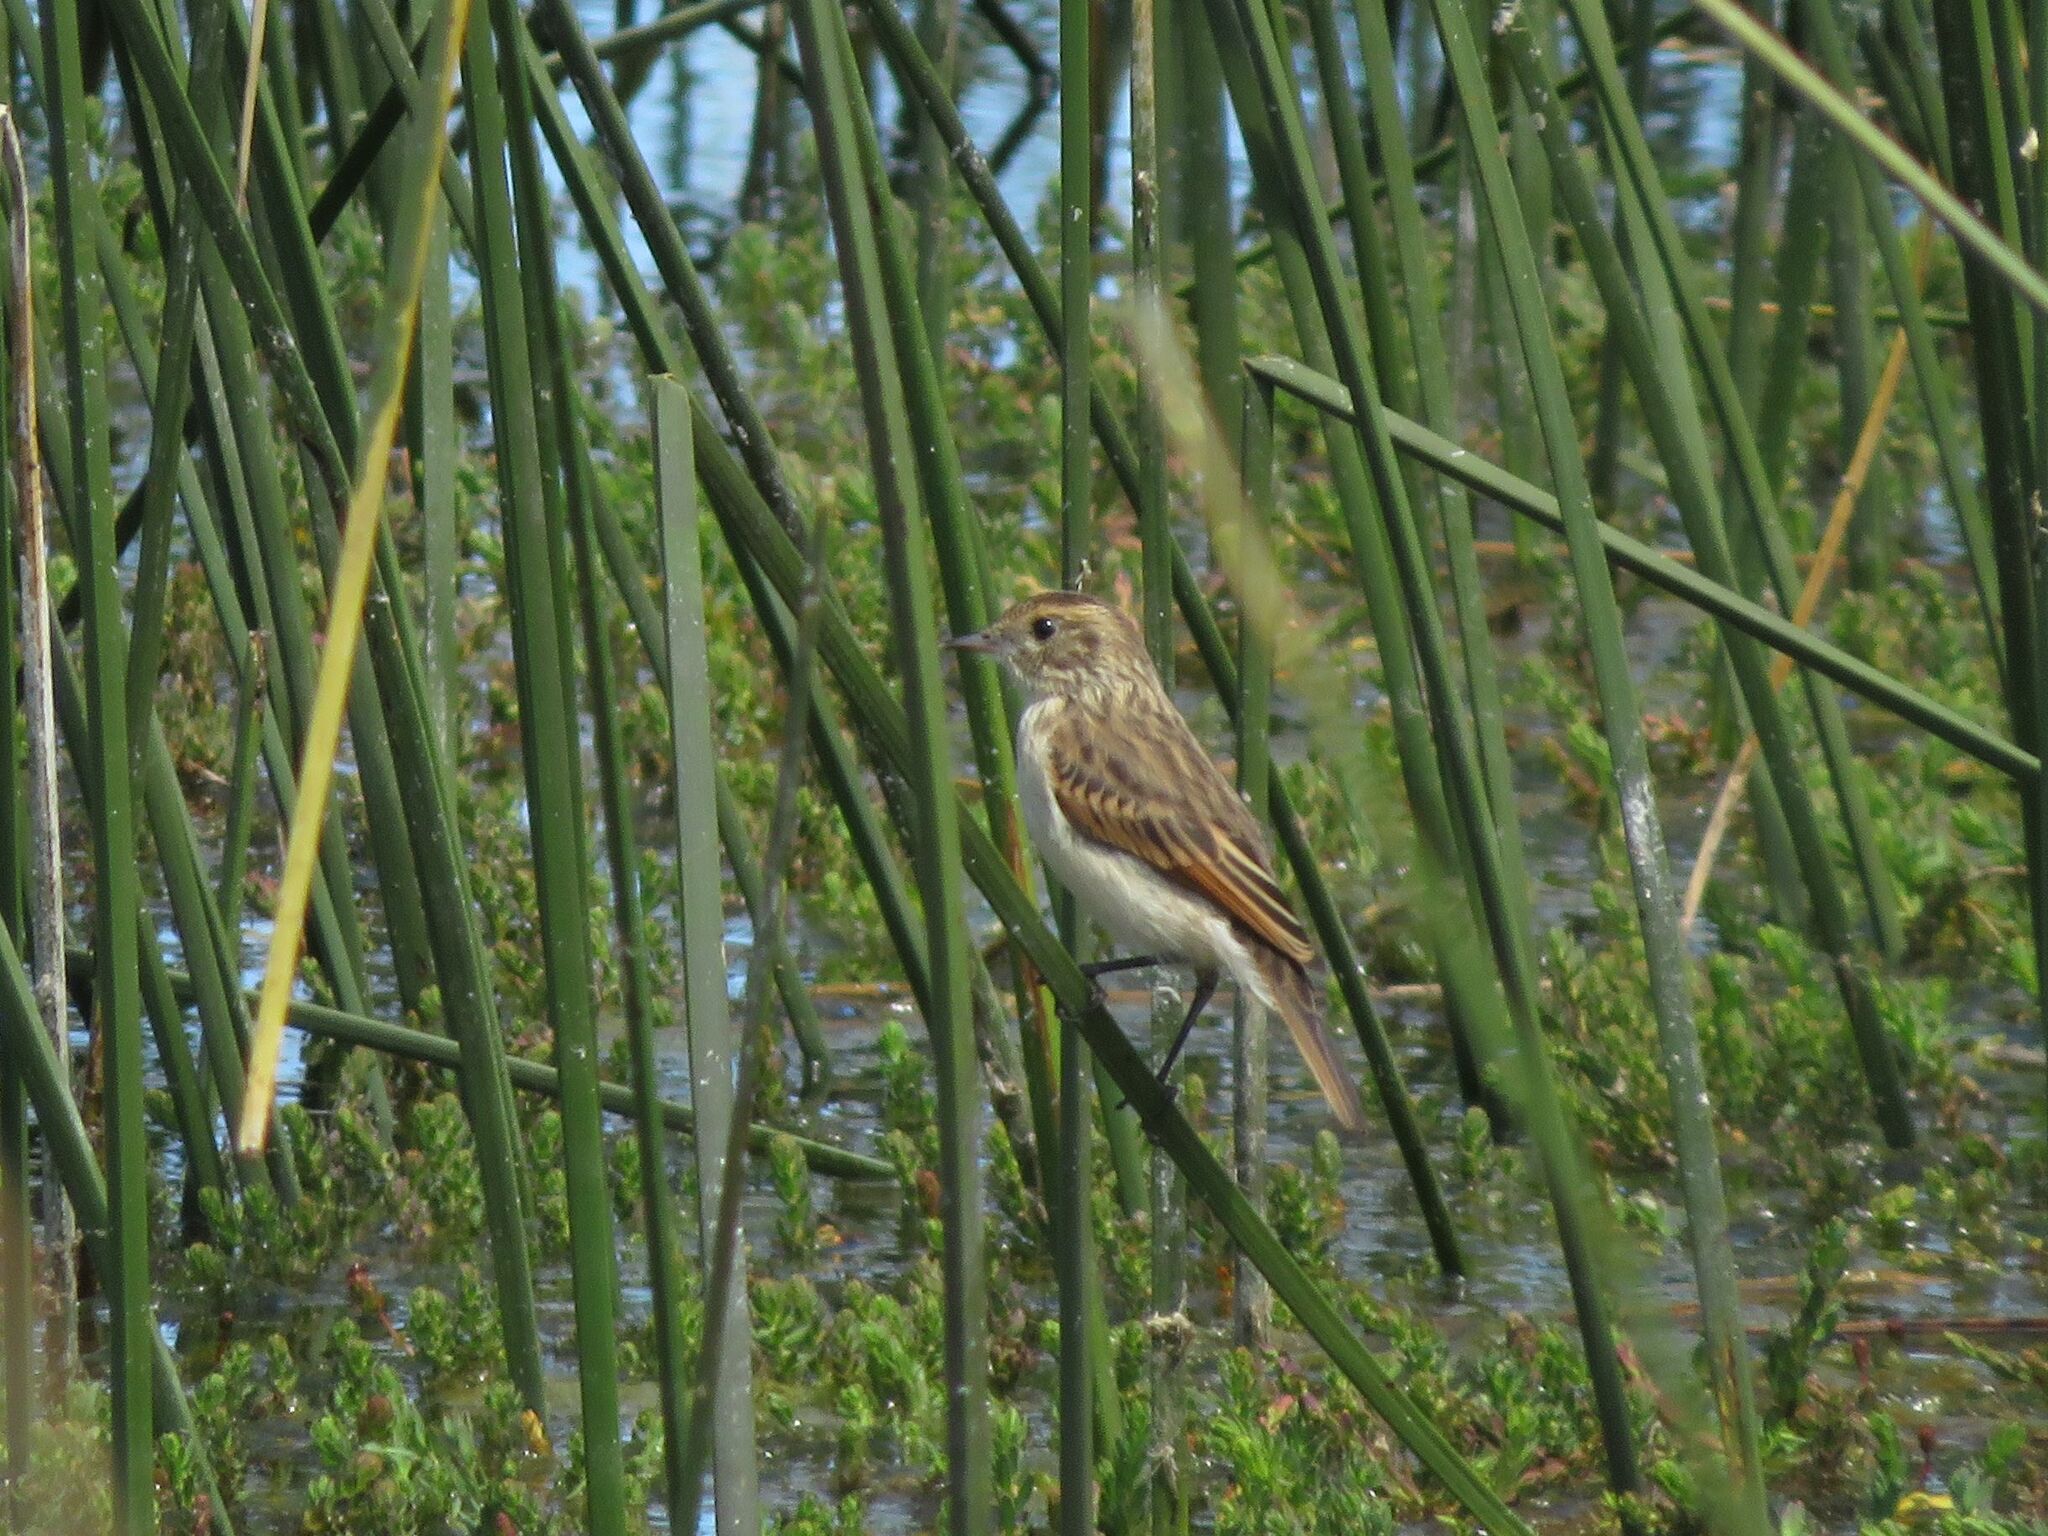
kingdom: Animalia
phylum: Chordata
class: Aves
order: Passeriformes
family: Tyrannidae
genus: Hymenops
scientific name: Hymenops perspicillatus
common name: Spectacled tyrant
